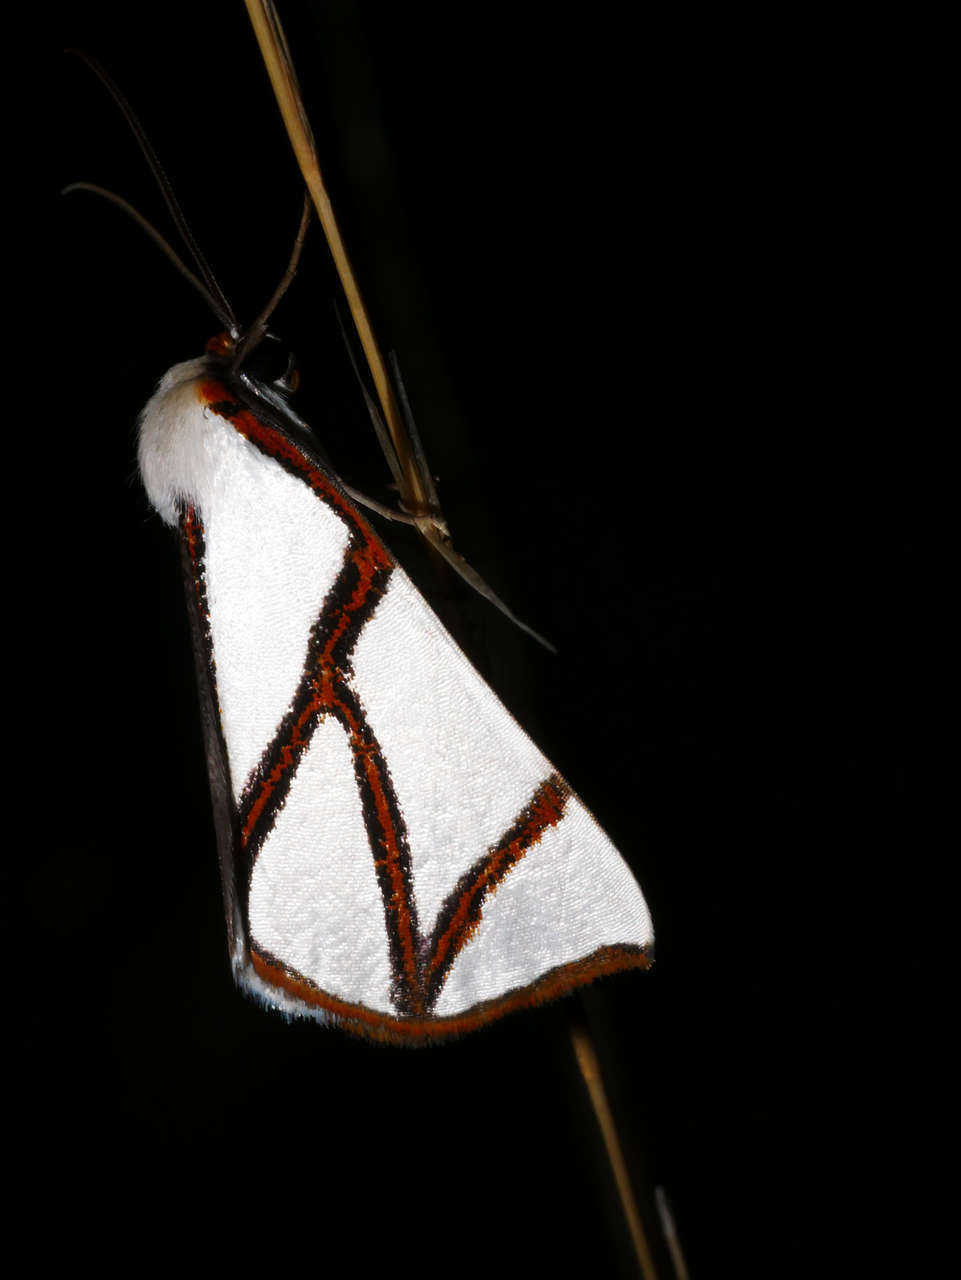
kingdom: Animalia
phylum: Arthropoda
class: Insecta
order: Lepidoptera
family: Geometridae
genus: Thalaina
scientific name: Thalaina clara
